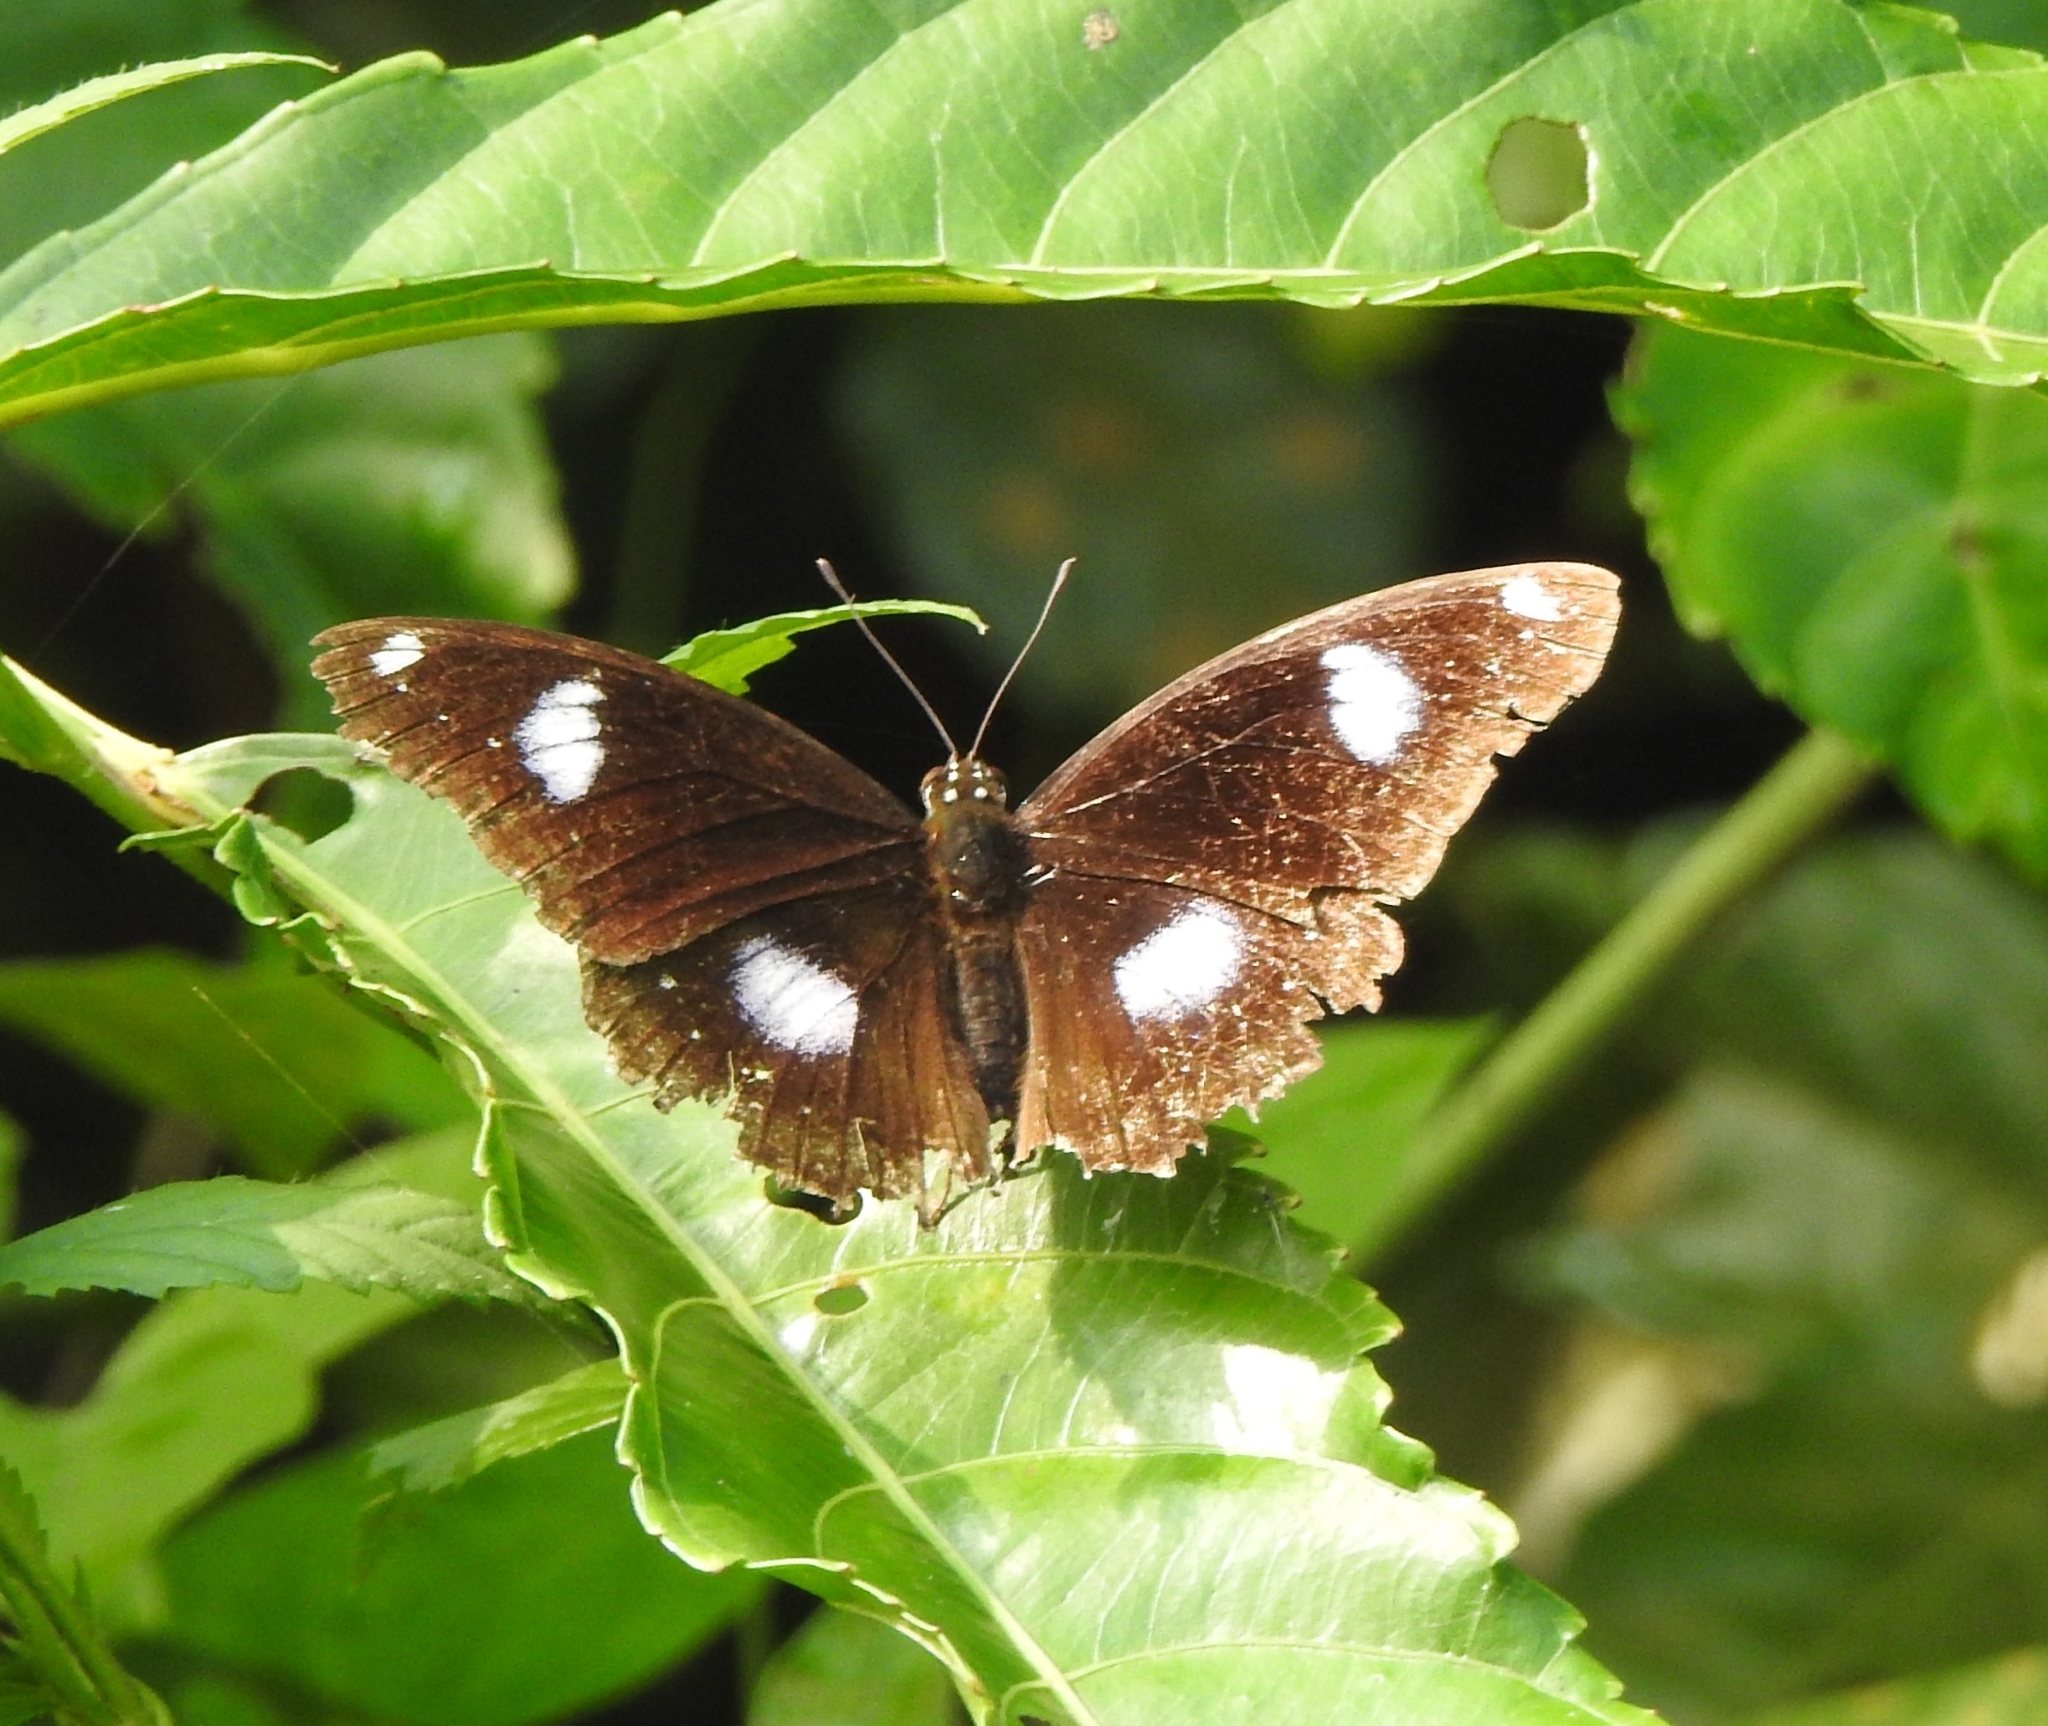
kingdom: Animalia
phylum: Arthropoda
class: Insecta
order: Lepidoptera
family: Nymphalidae
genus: Hypolimnas
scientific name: Hypolimnas bolina
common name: Great eggfly
